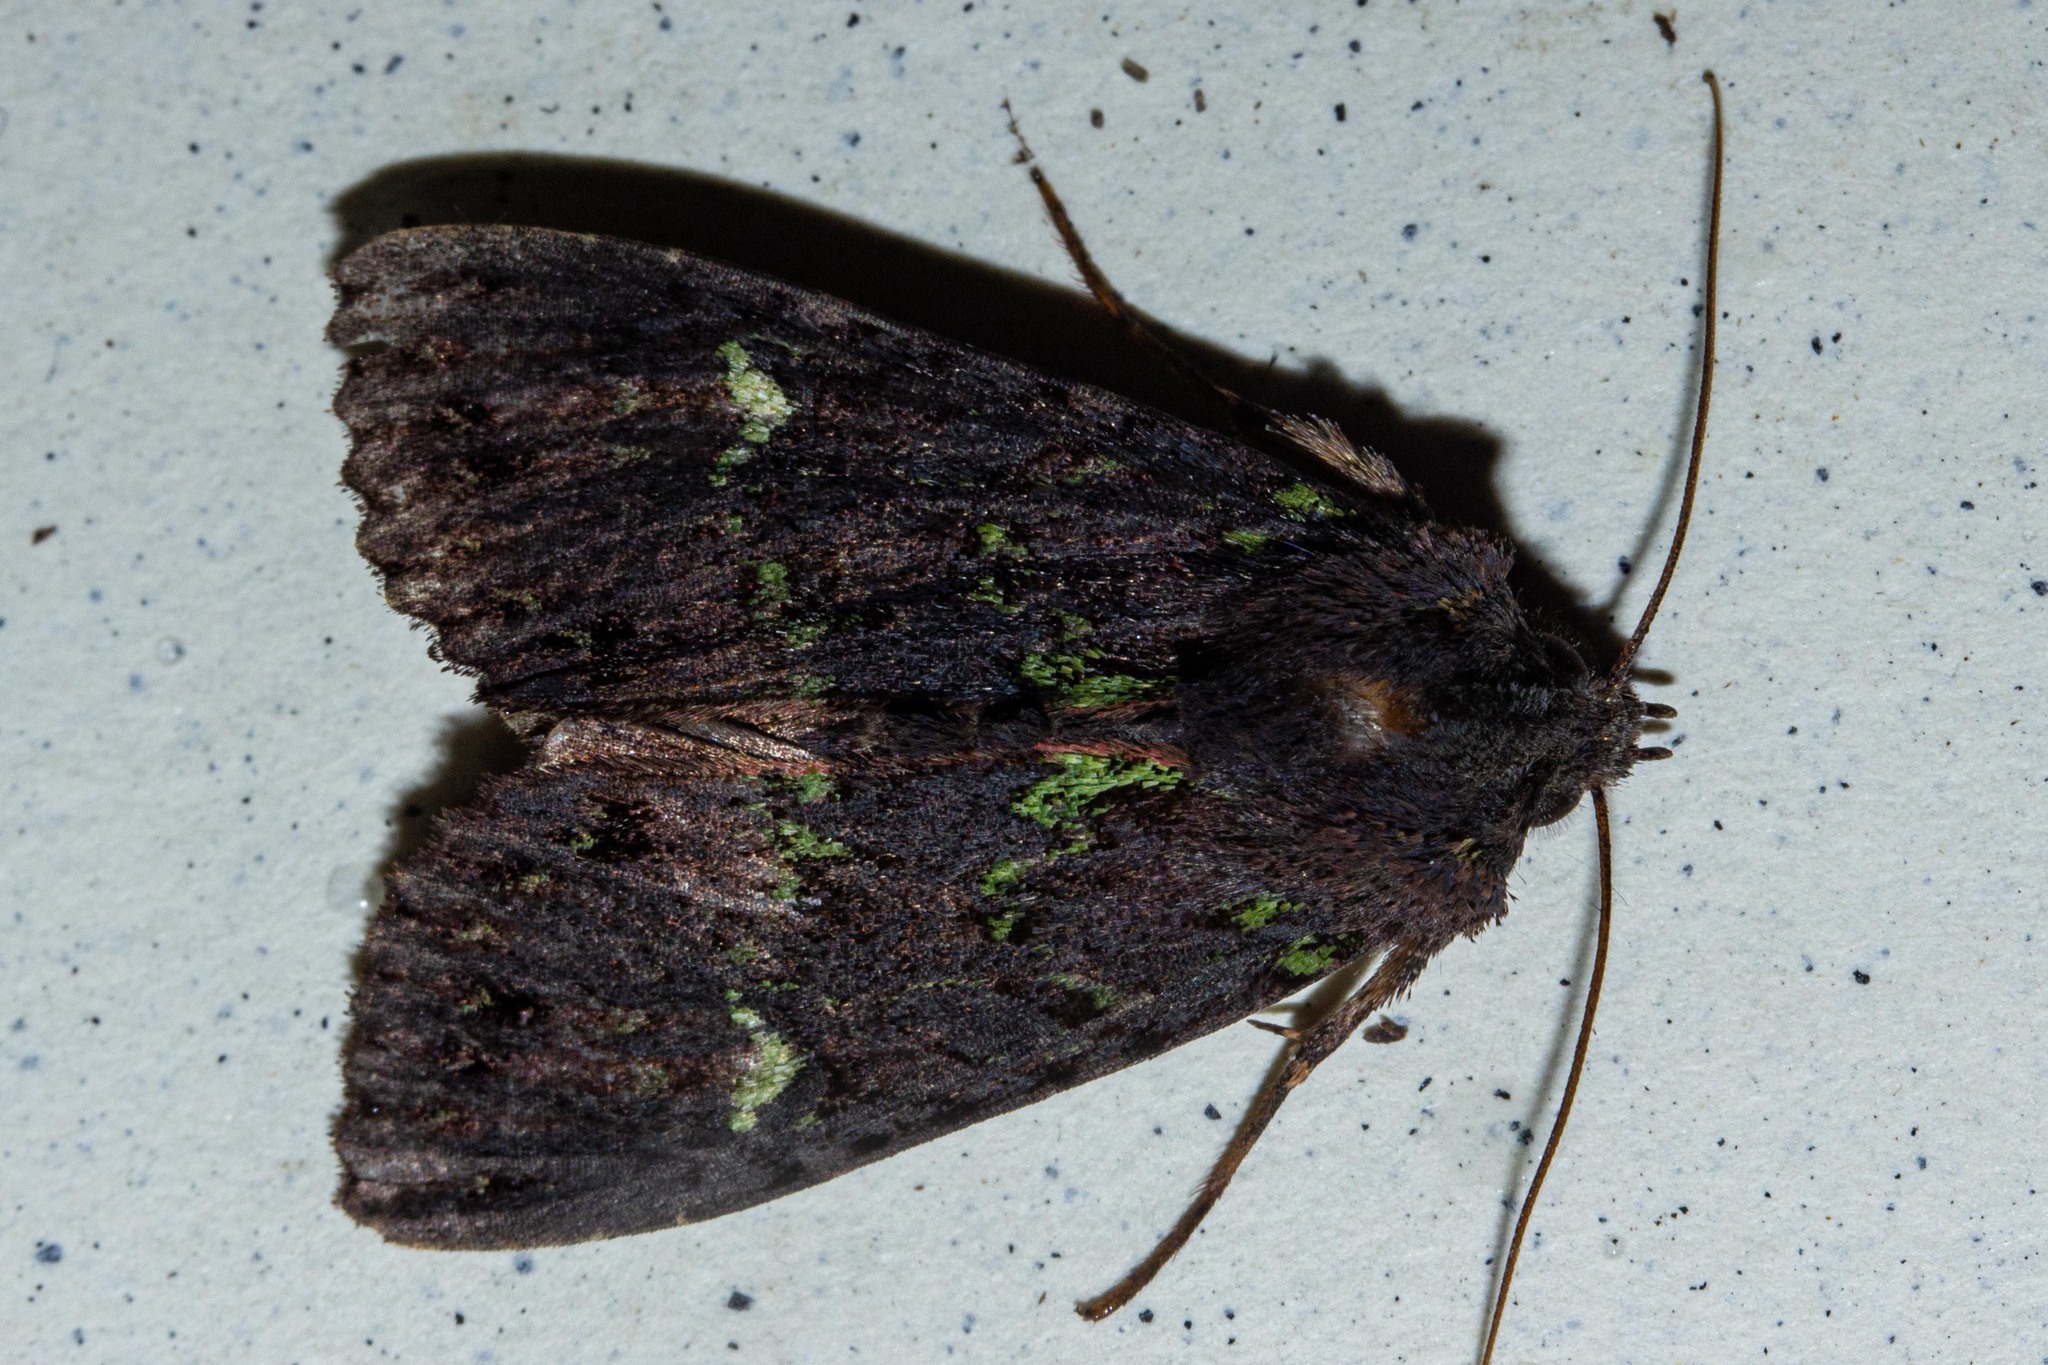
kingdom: Animalia
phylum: Arthropoda
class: Insecta
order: Lepidoptera
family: Noctuidae
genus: Meterana
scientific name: Meterana merope
